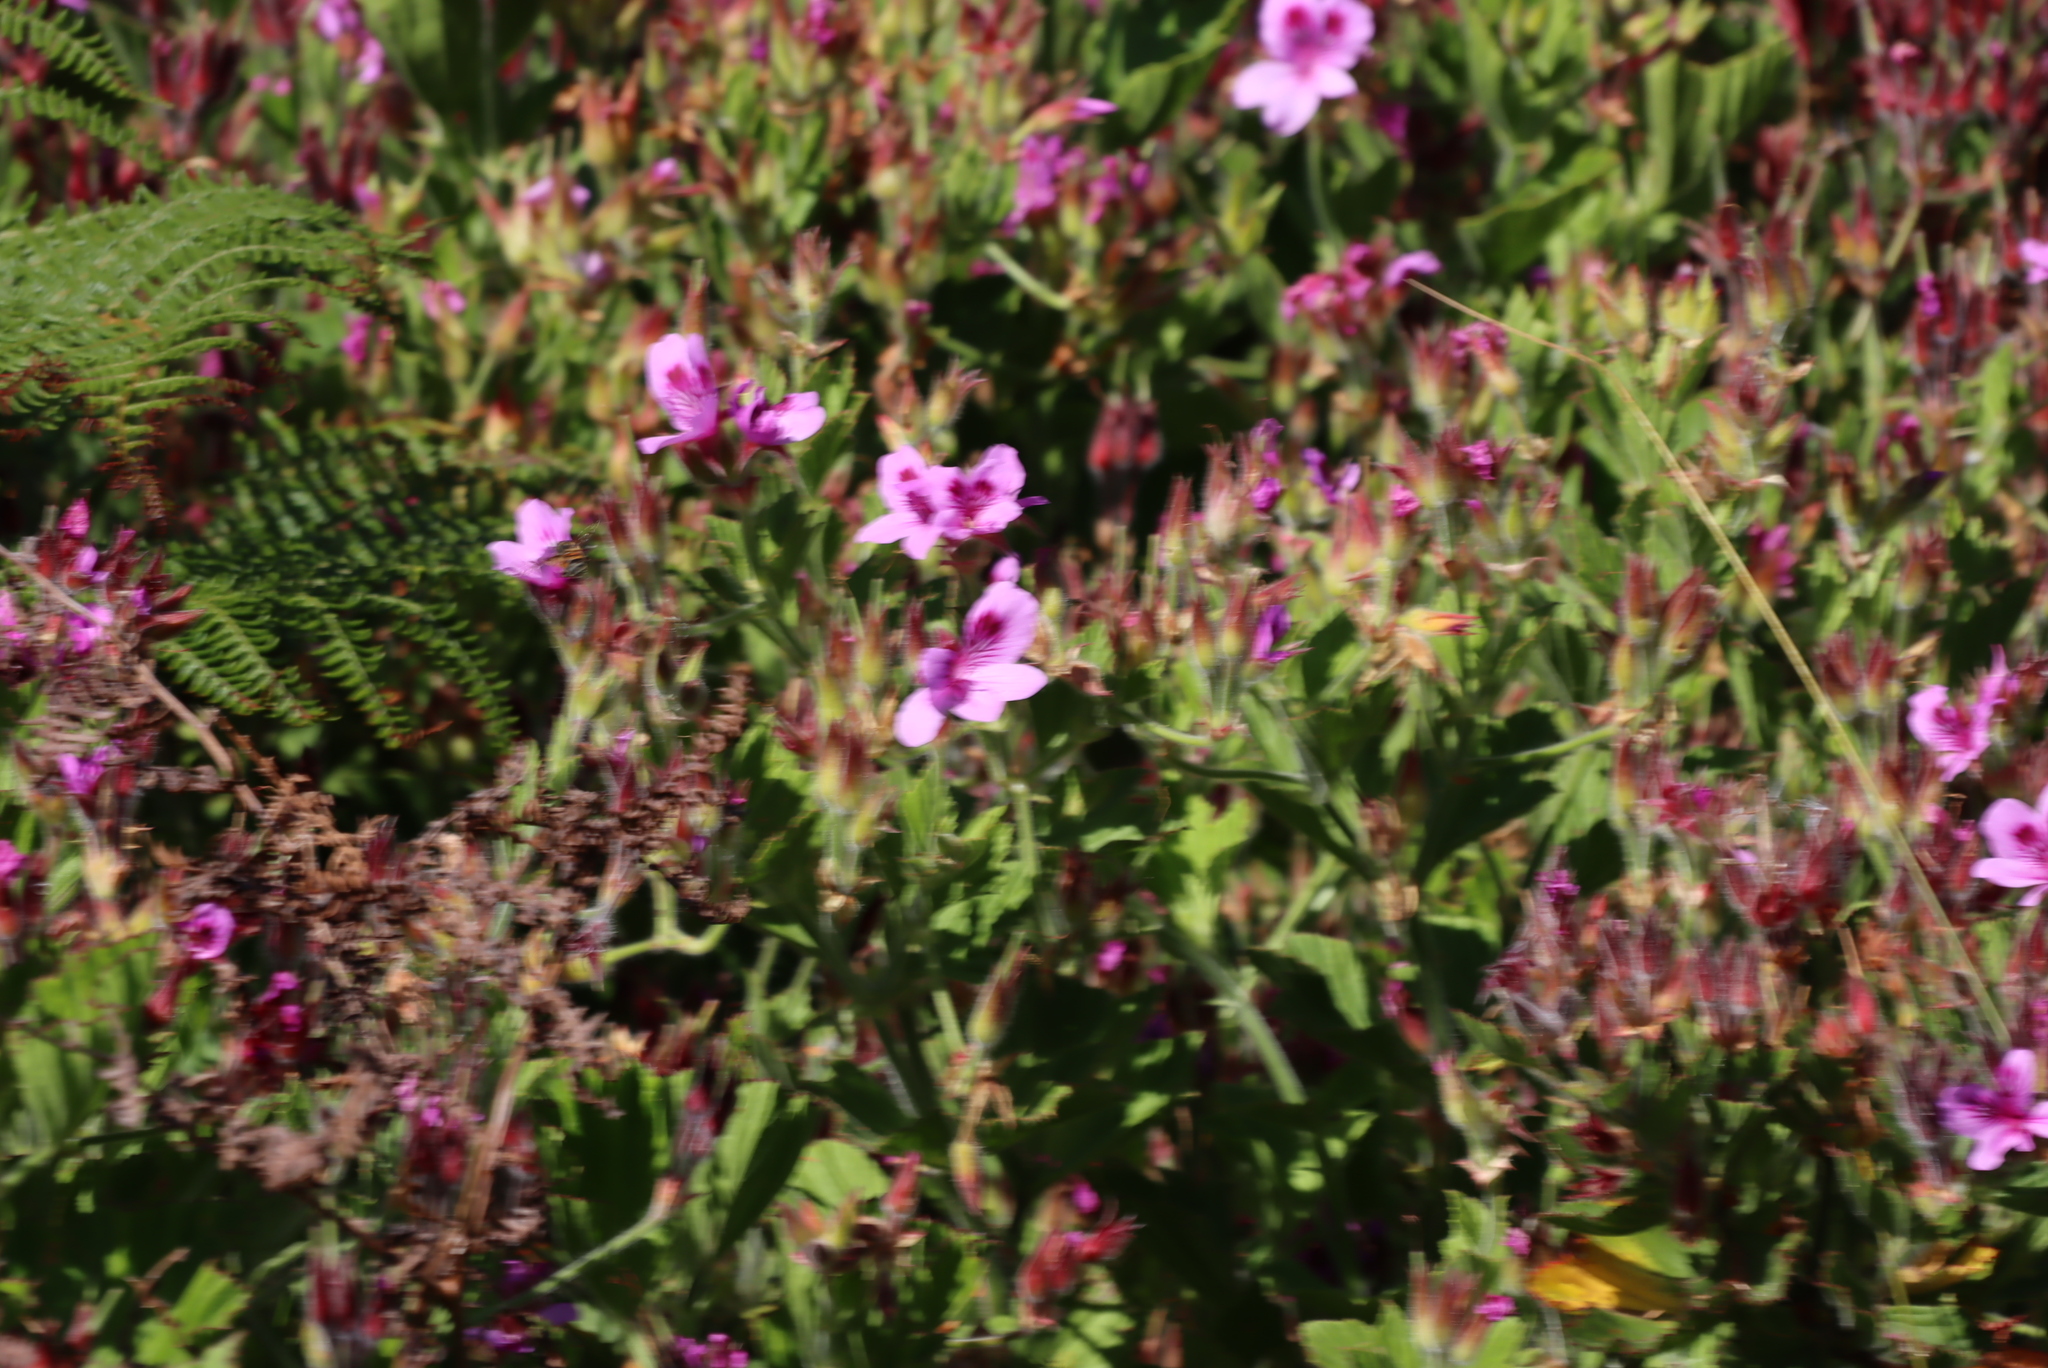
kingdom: Plantae
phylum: Tracheophyta
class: Magnoliopsida
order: Geraniales
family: Geraniaceae
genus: Pelargonium
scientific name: Pelargonium cucullatum
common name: Tree pelargonium
